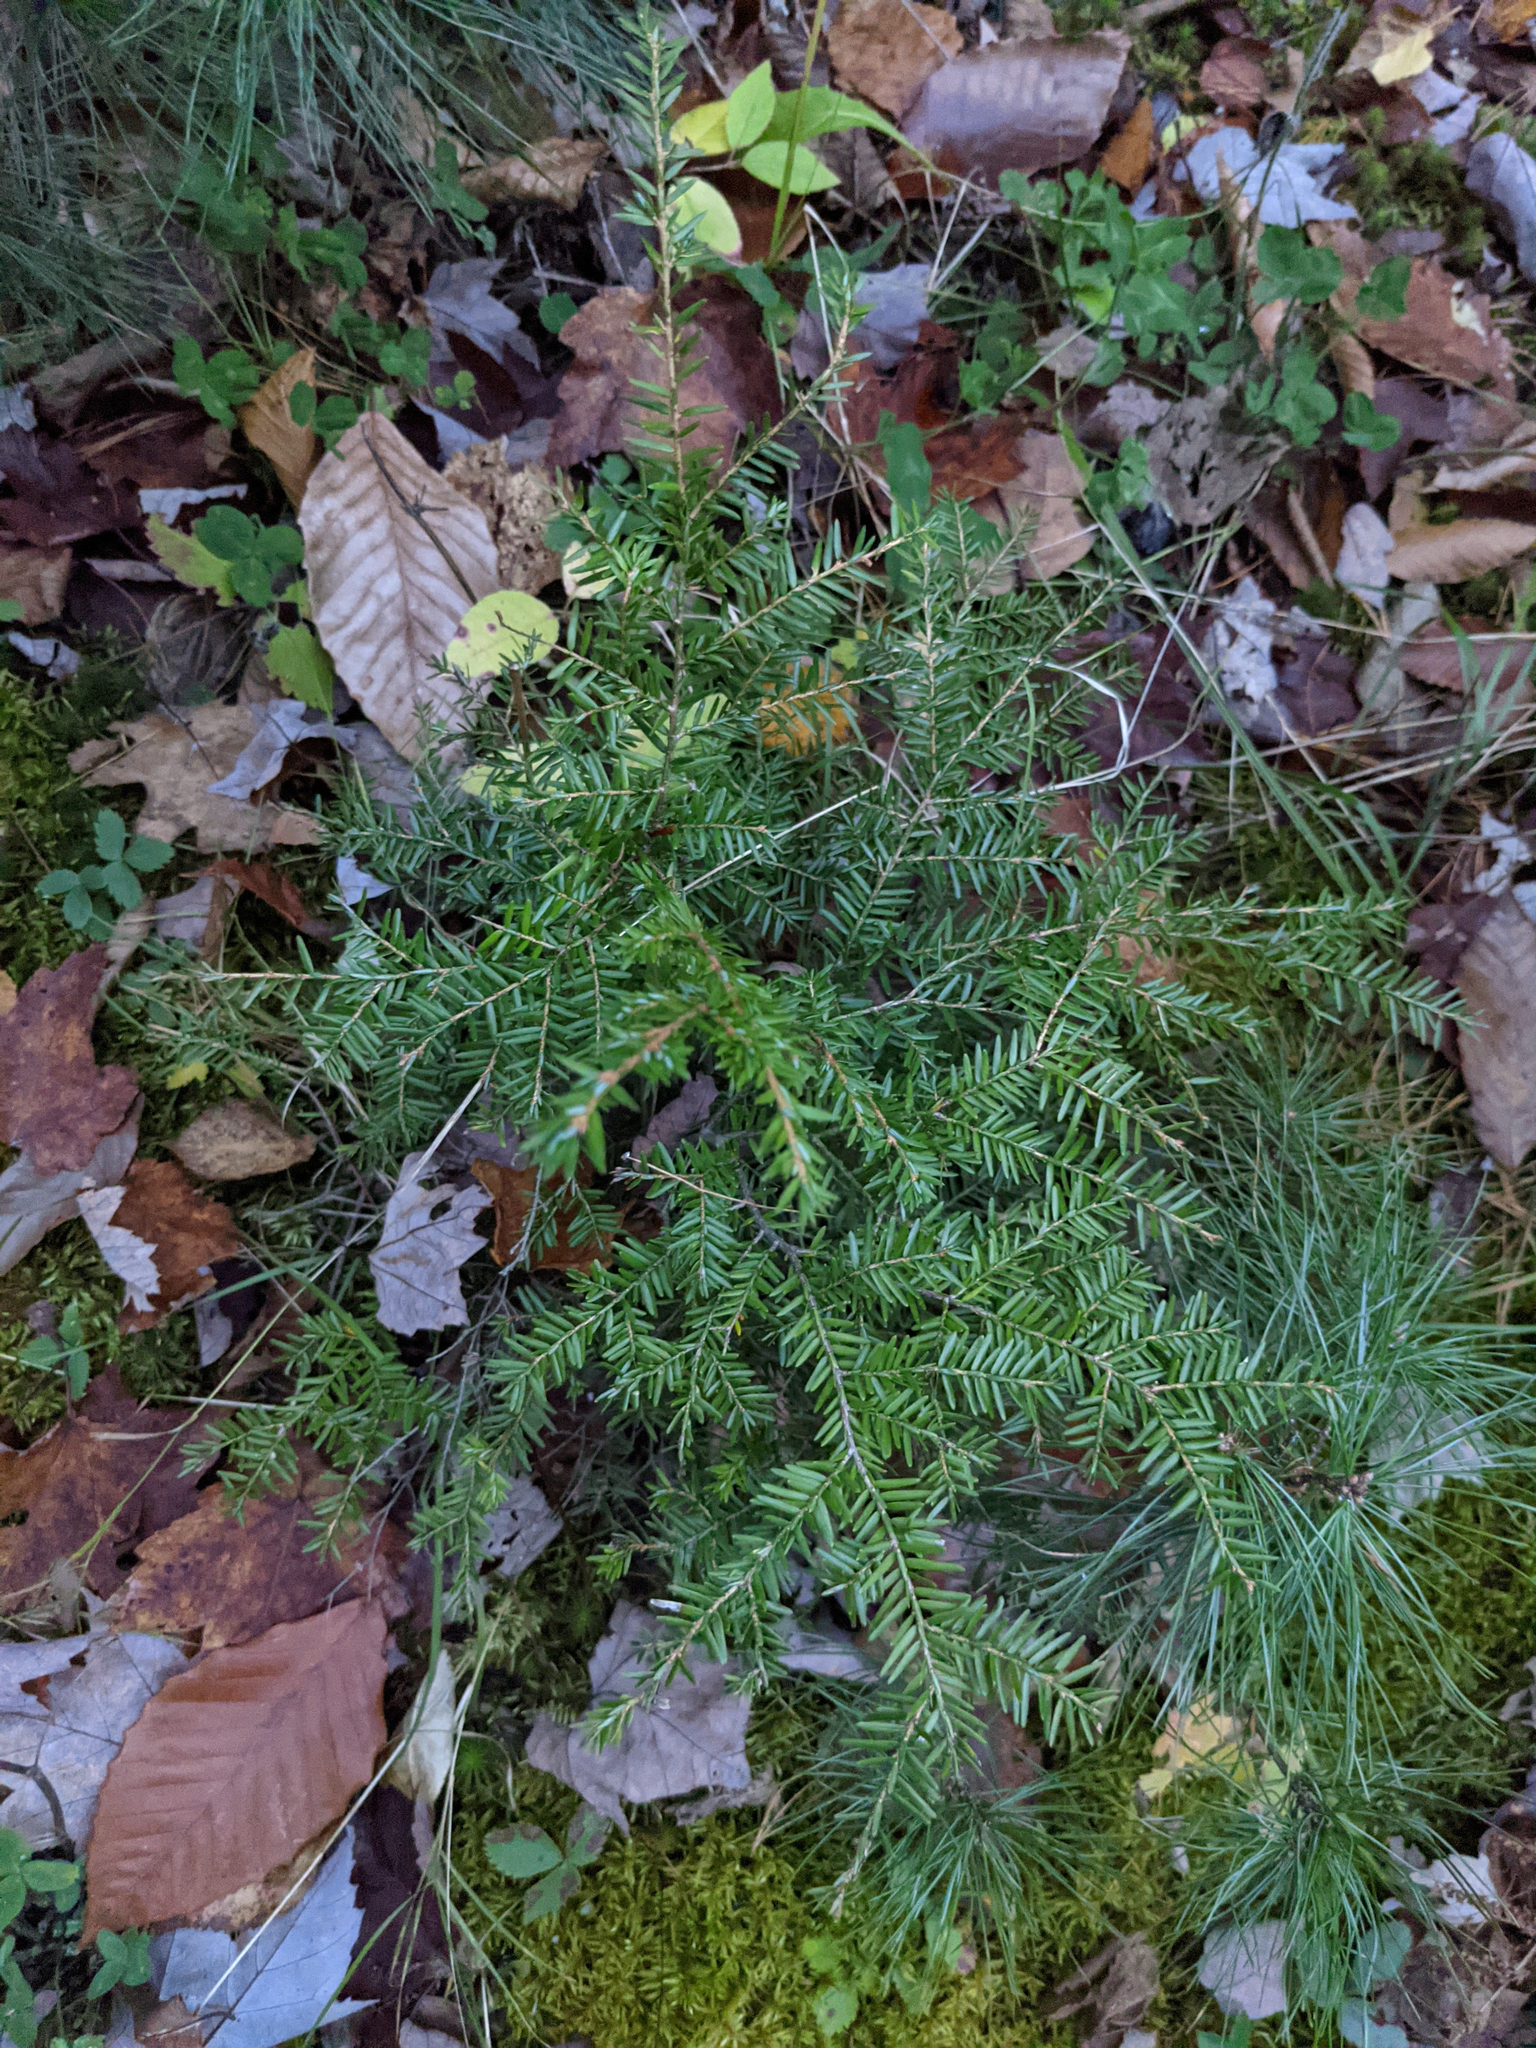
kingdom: Plantae
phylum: Tracheophyta
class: Pinopsida
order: Pinales
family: Pinaceae
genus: Tsuga
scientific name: Tsuga canadensis
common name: Eastern hemlock
